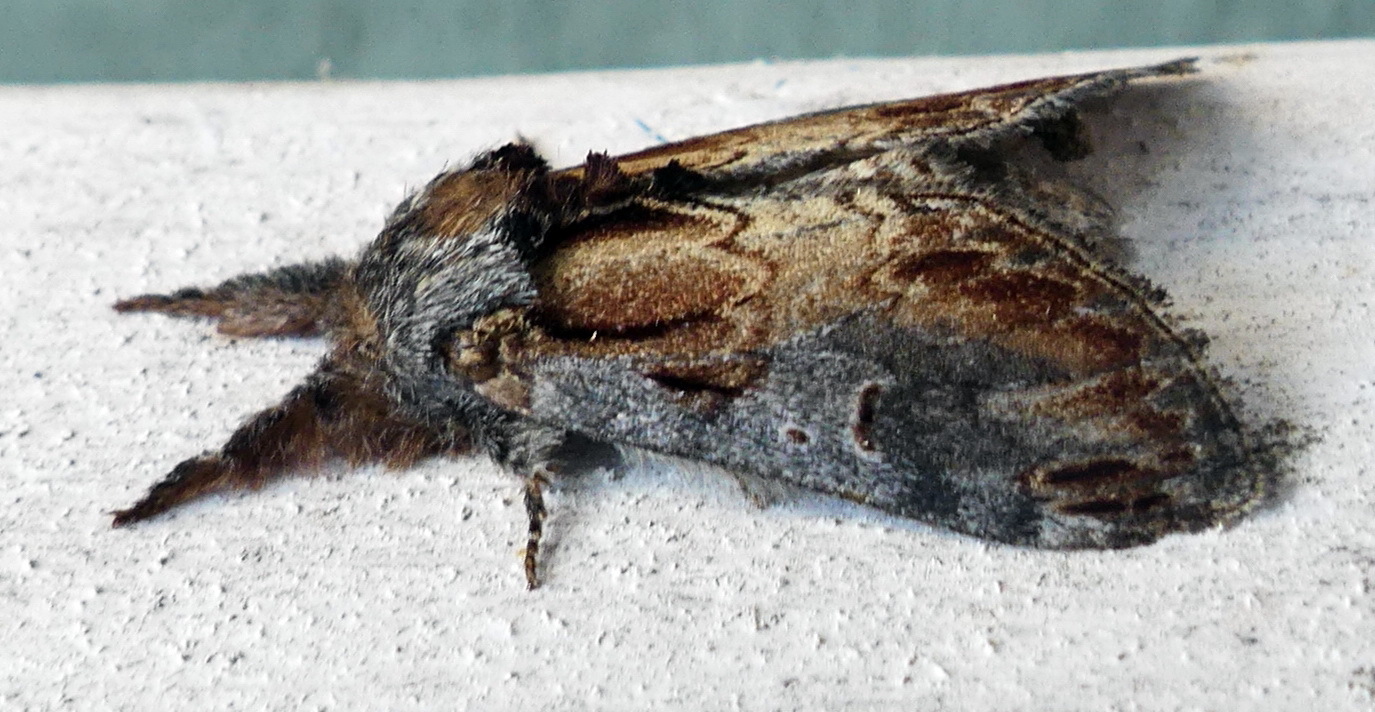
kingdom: Animalia
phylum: Arthropoda
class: Insecta
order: Lepidoptera
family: Notodontidae
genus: Notodonta
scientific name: Notodonta scitipennis
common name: Finned-willow prominent moth
